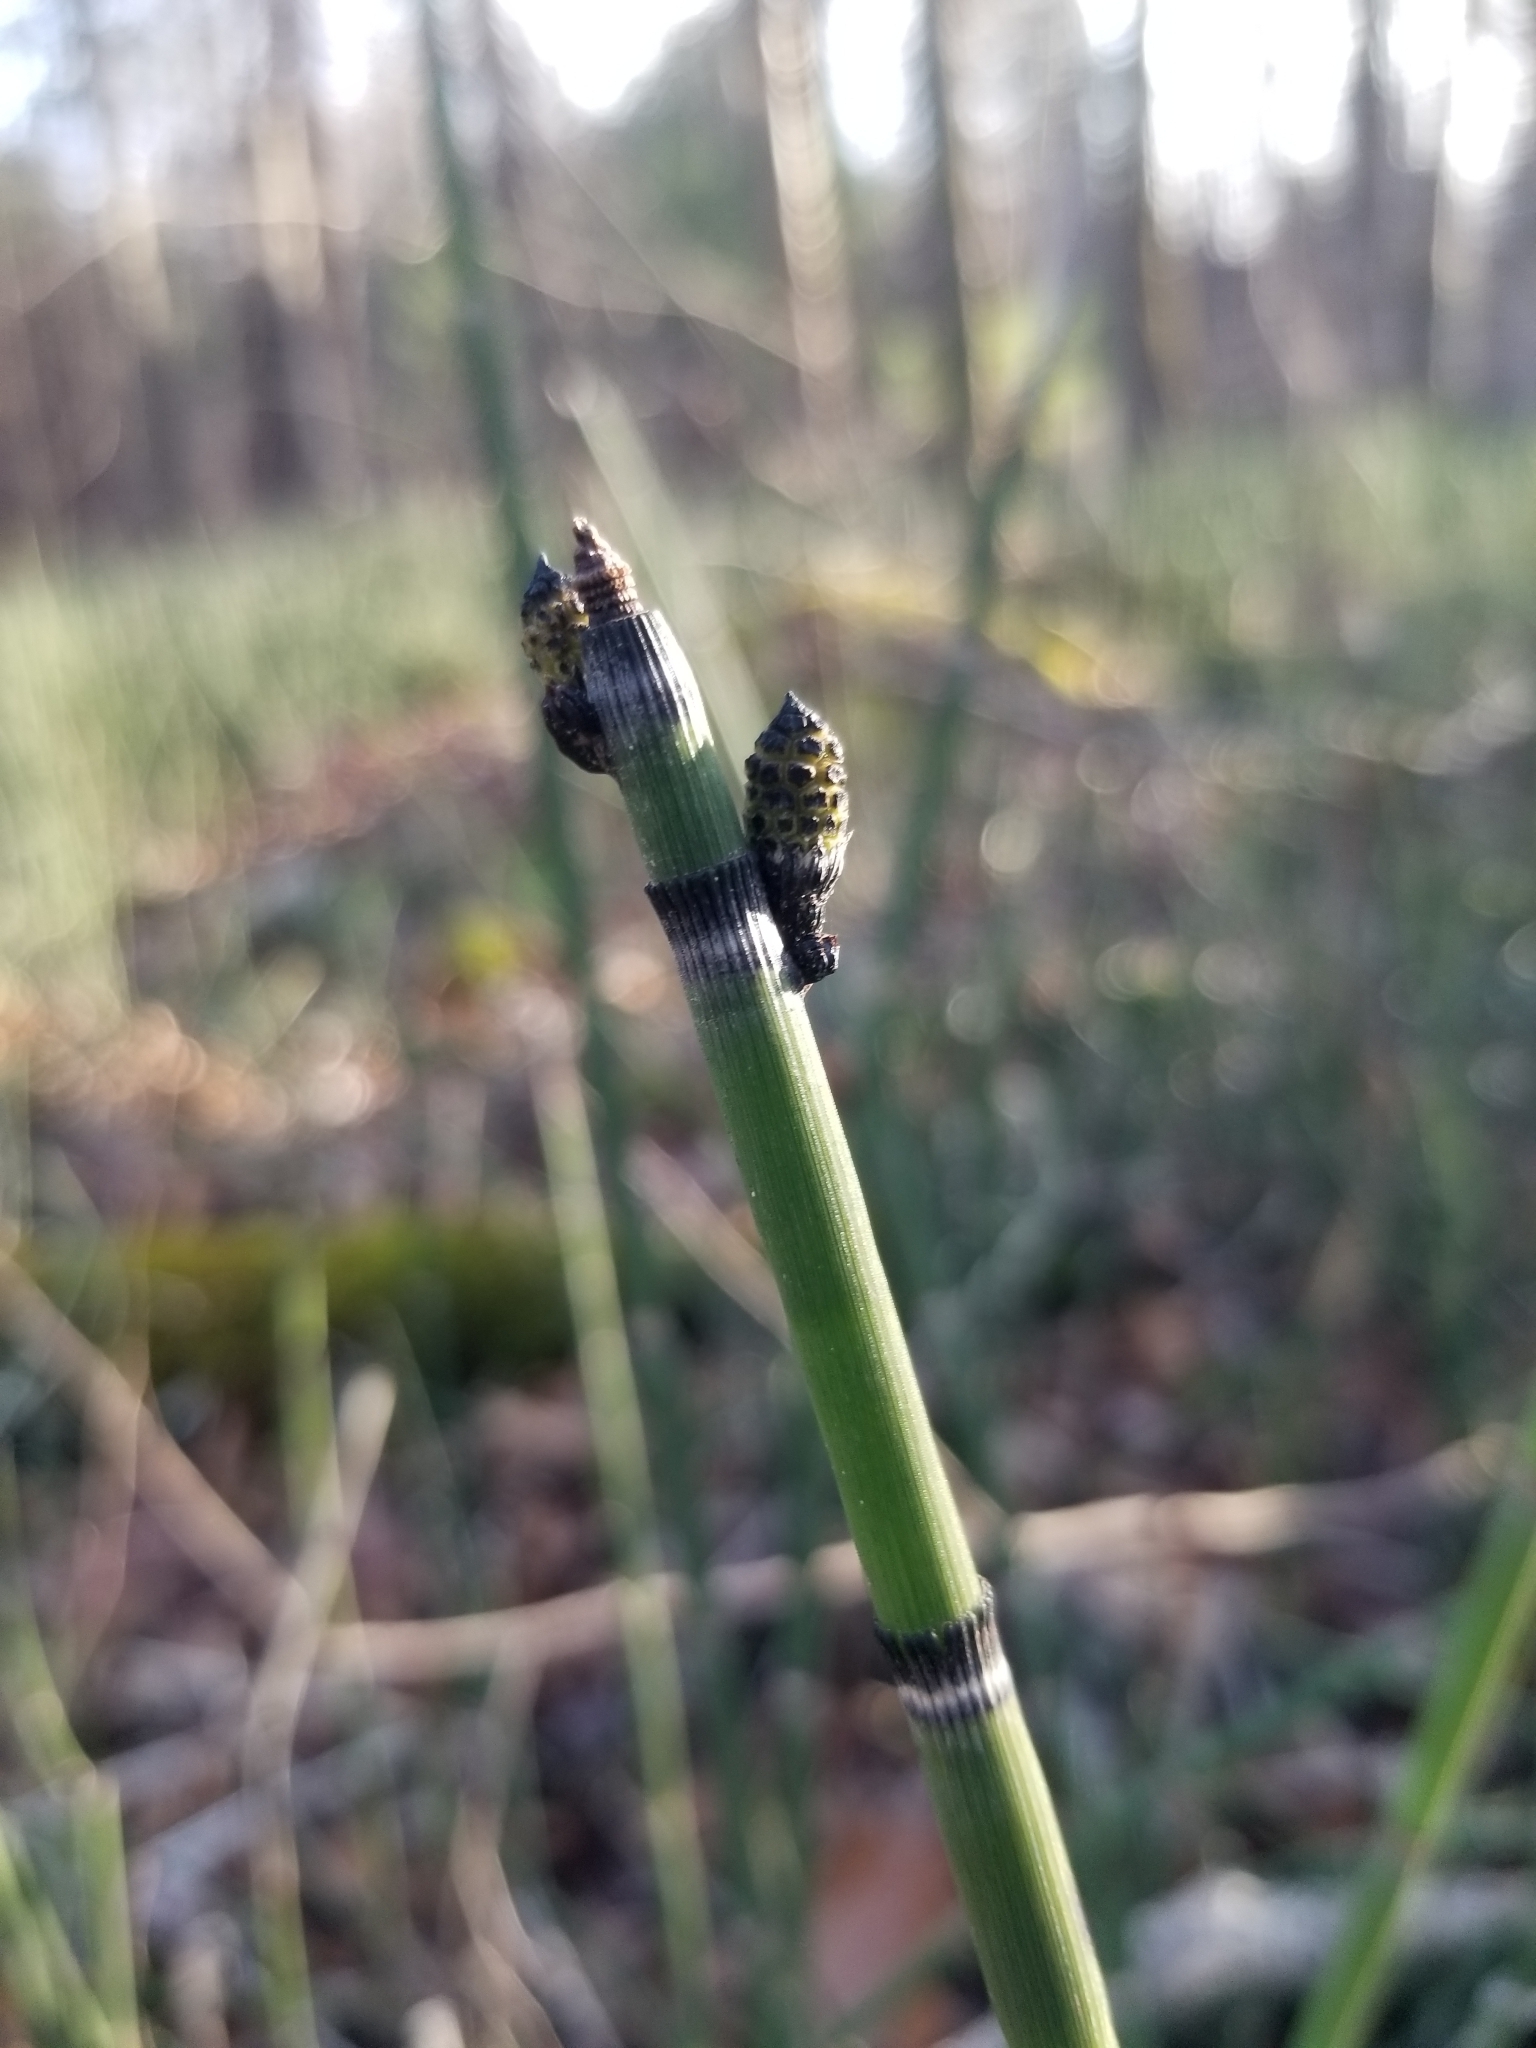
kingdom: Plantae
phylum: Tracheophyta
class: Polypodiopsida
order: Equisetales
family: Equisetaceae
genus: Equisetum
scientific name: Equisetum hyemale
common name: Rough horsetail
